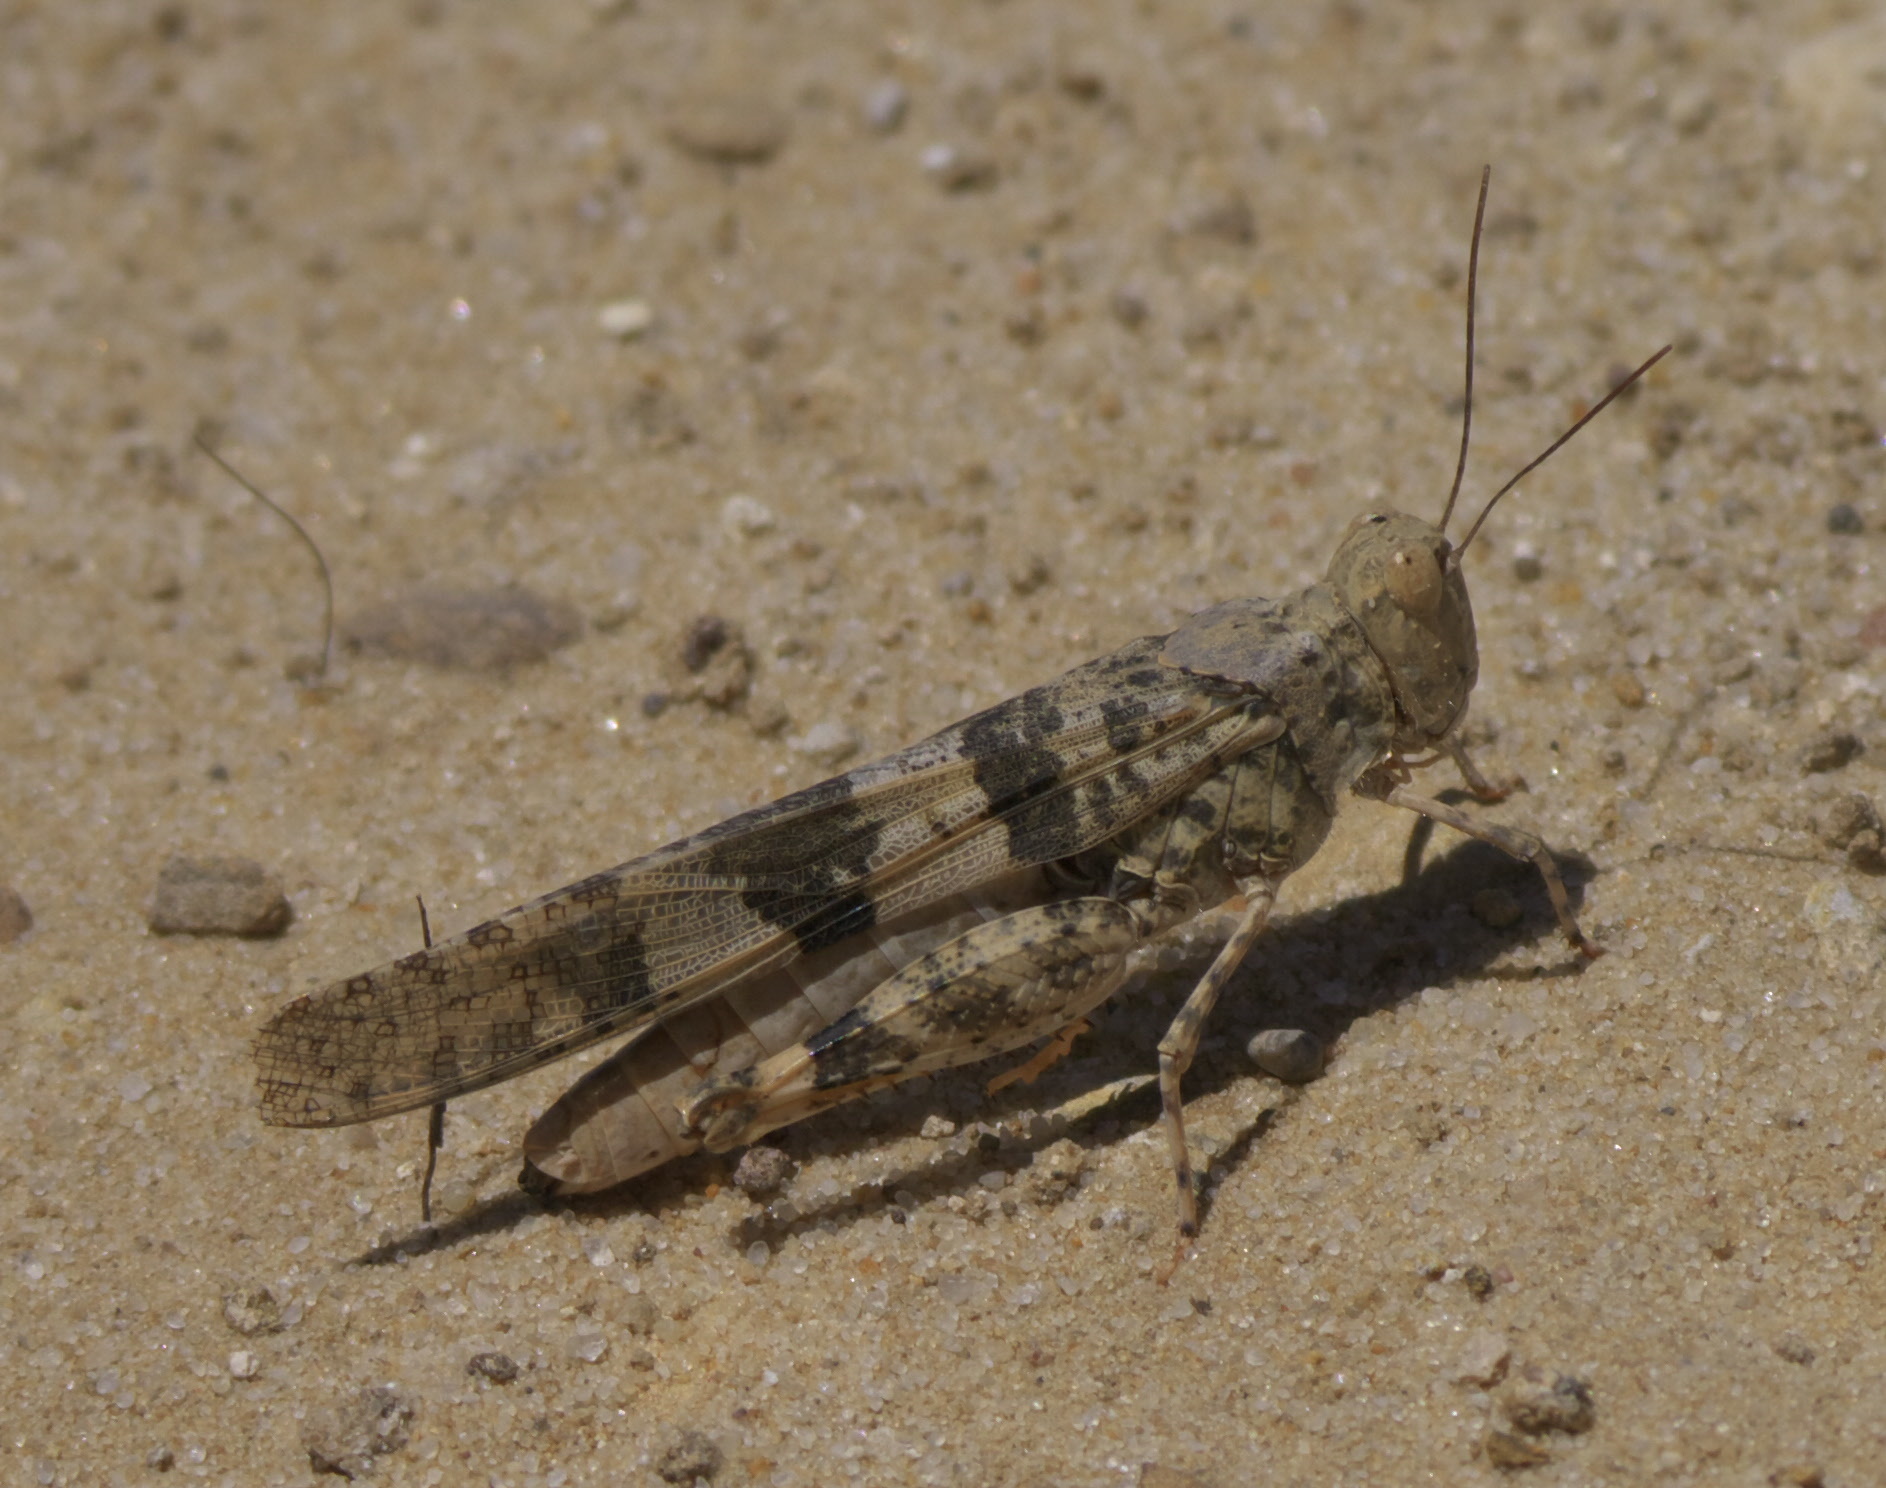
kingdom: Animalia
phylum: Arthropoda
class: Insecta
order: Orthoptera
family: Acrididae
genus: Trimerotropis
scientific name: Trimerotropis pallidipennis
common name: Pallid-winged grasshopper
